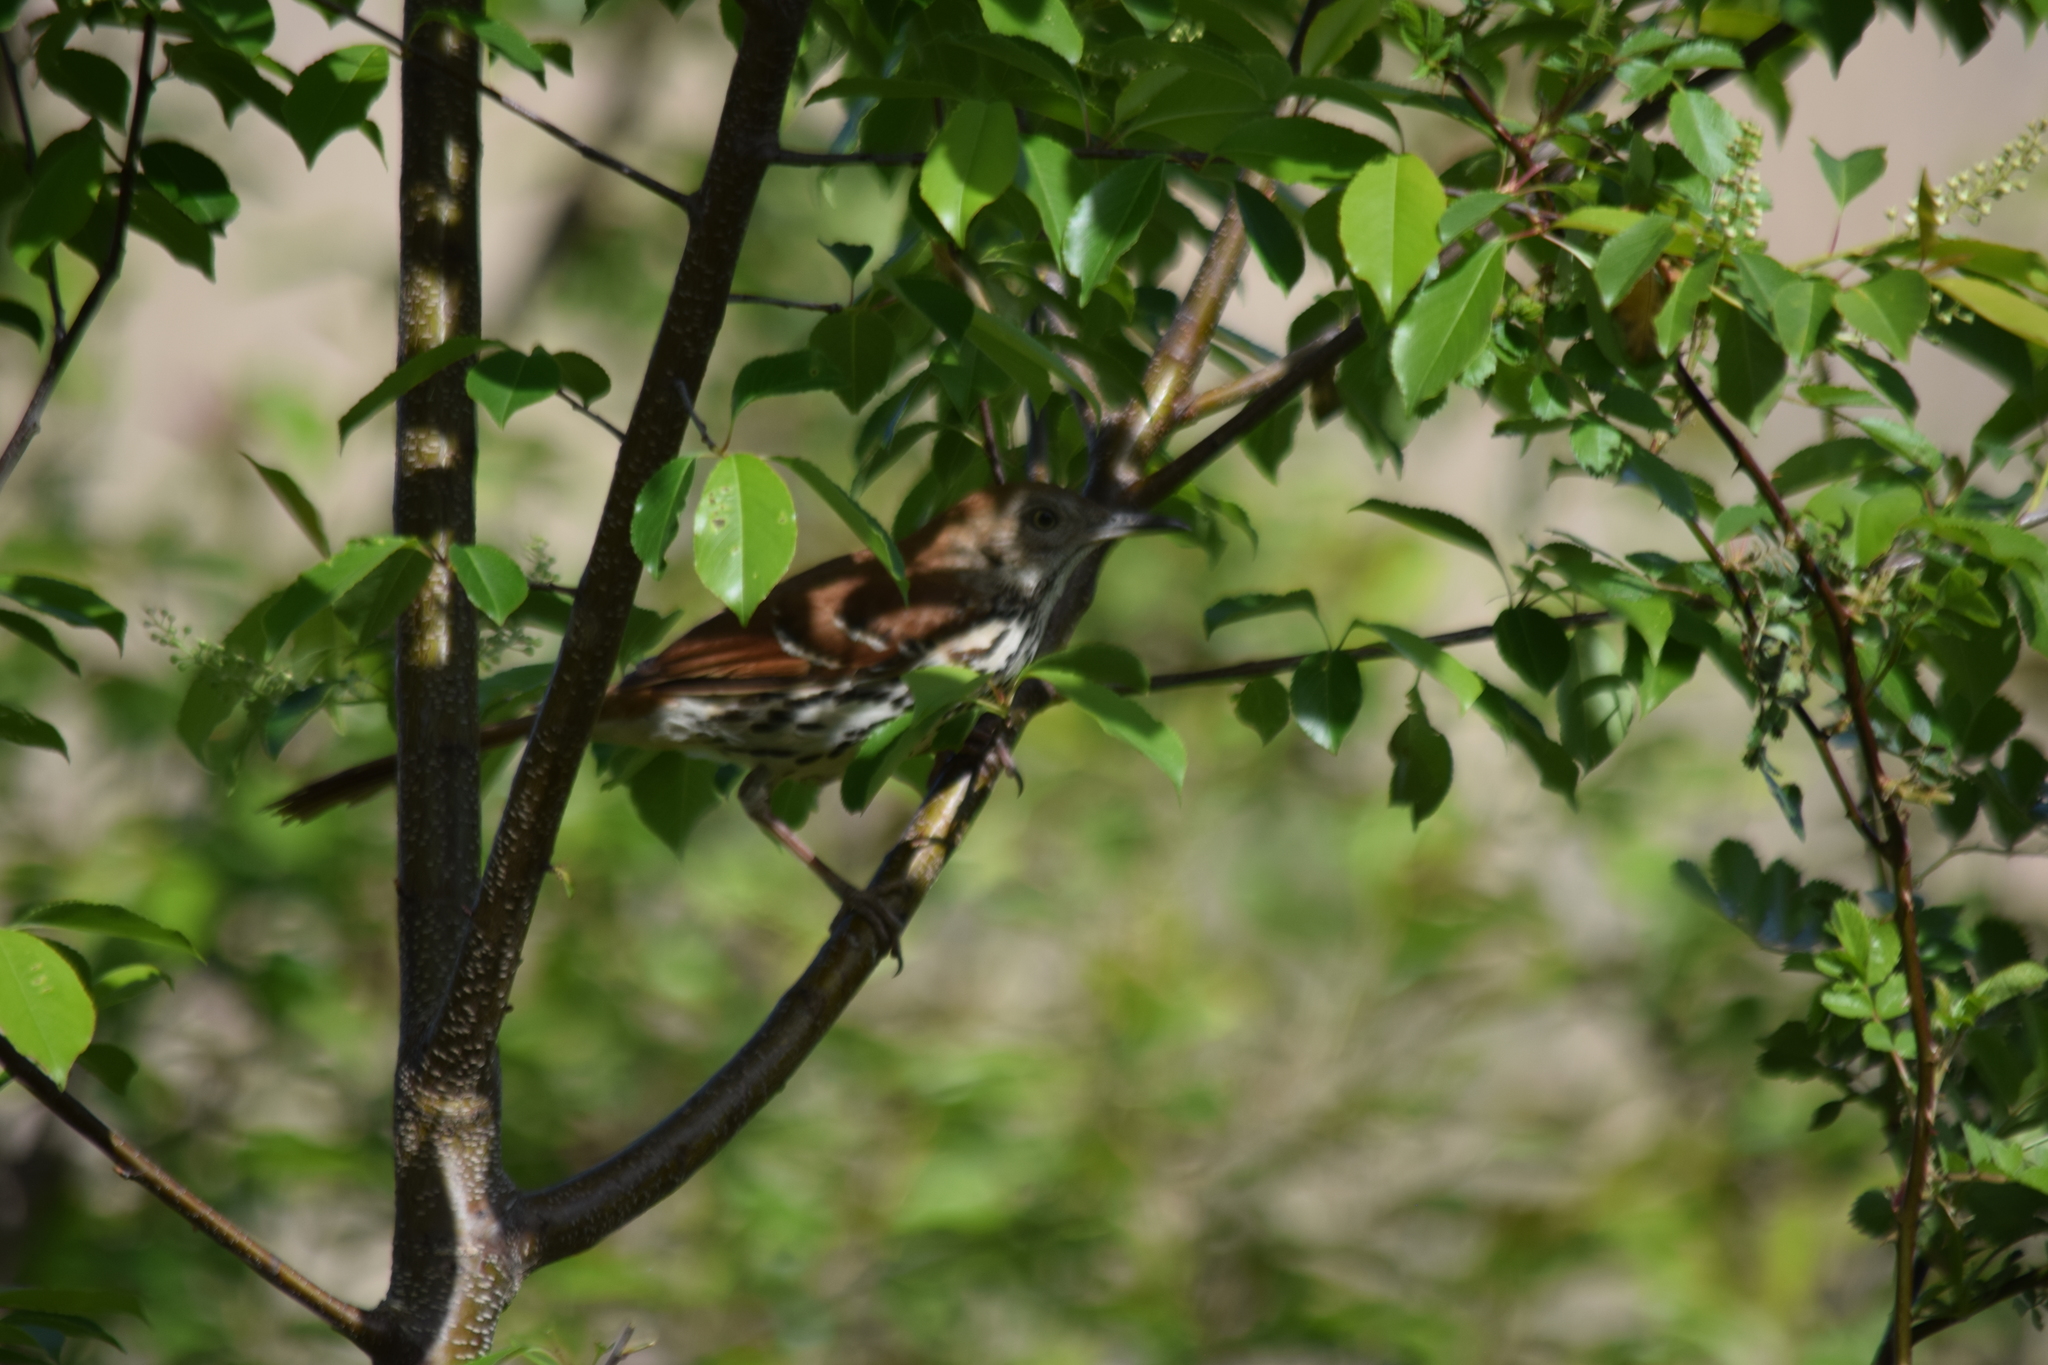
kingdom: Animalia
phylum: Chordata
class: Aves
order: Passeriformes
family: Mimidae
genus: Toxostoma
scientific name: Toxostoma rufum
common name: Brown thrasher
